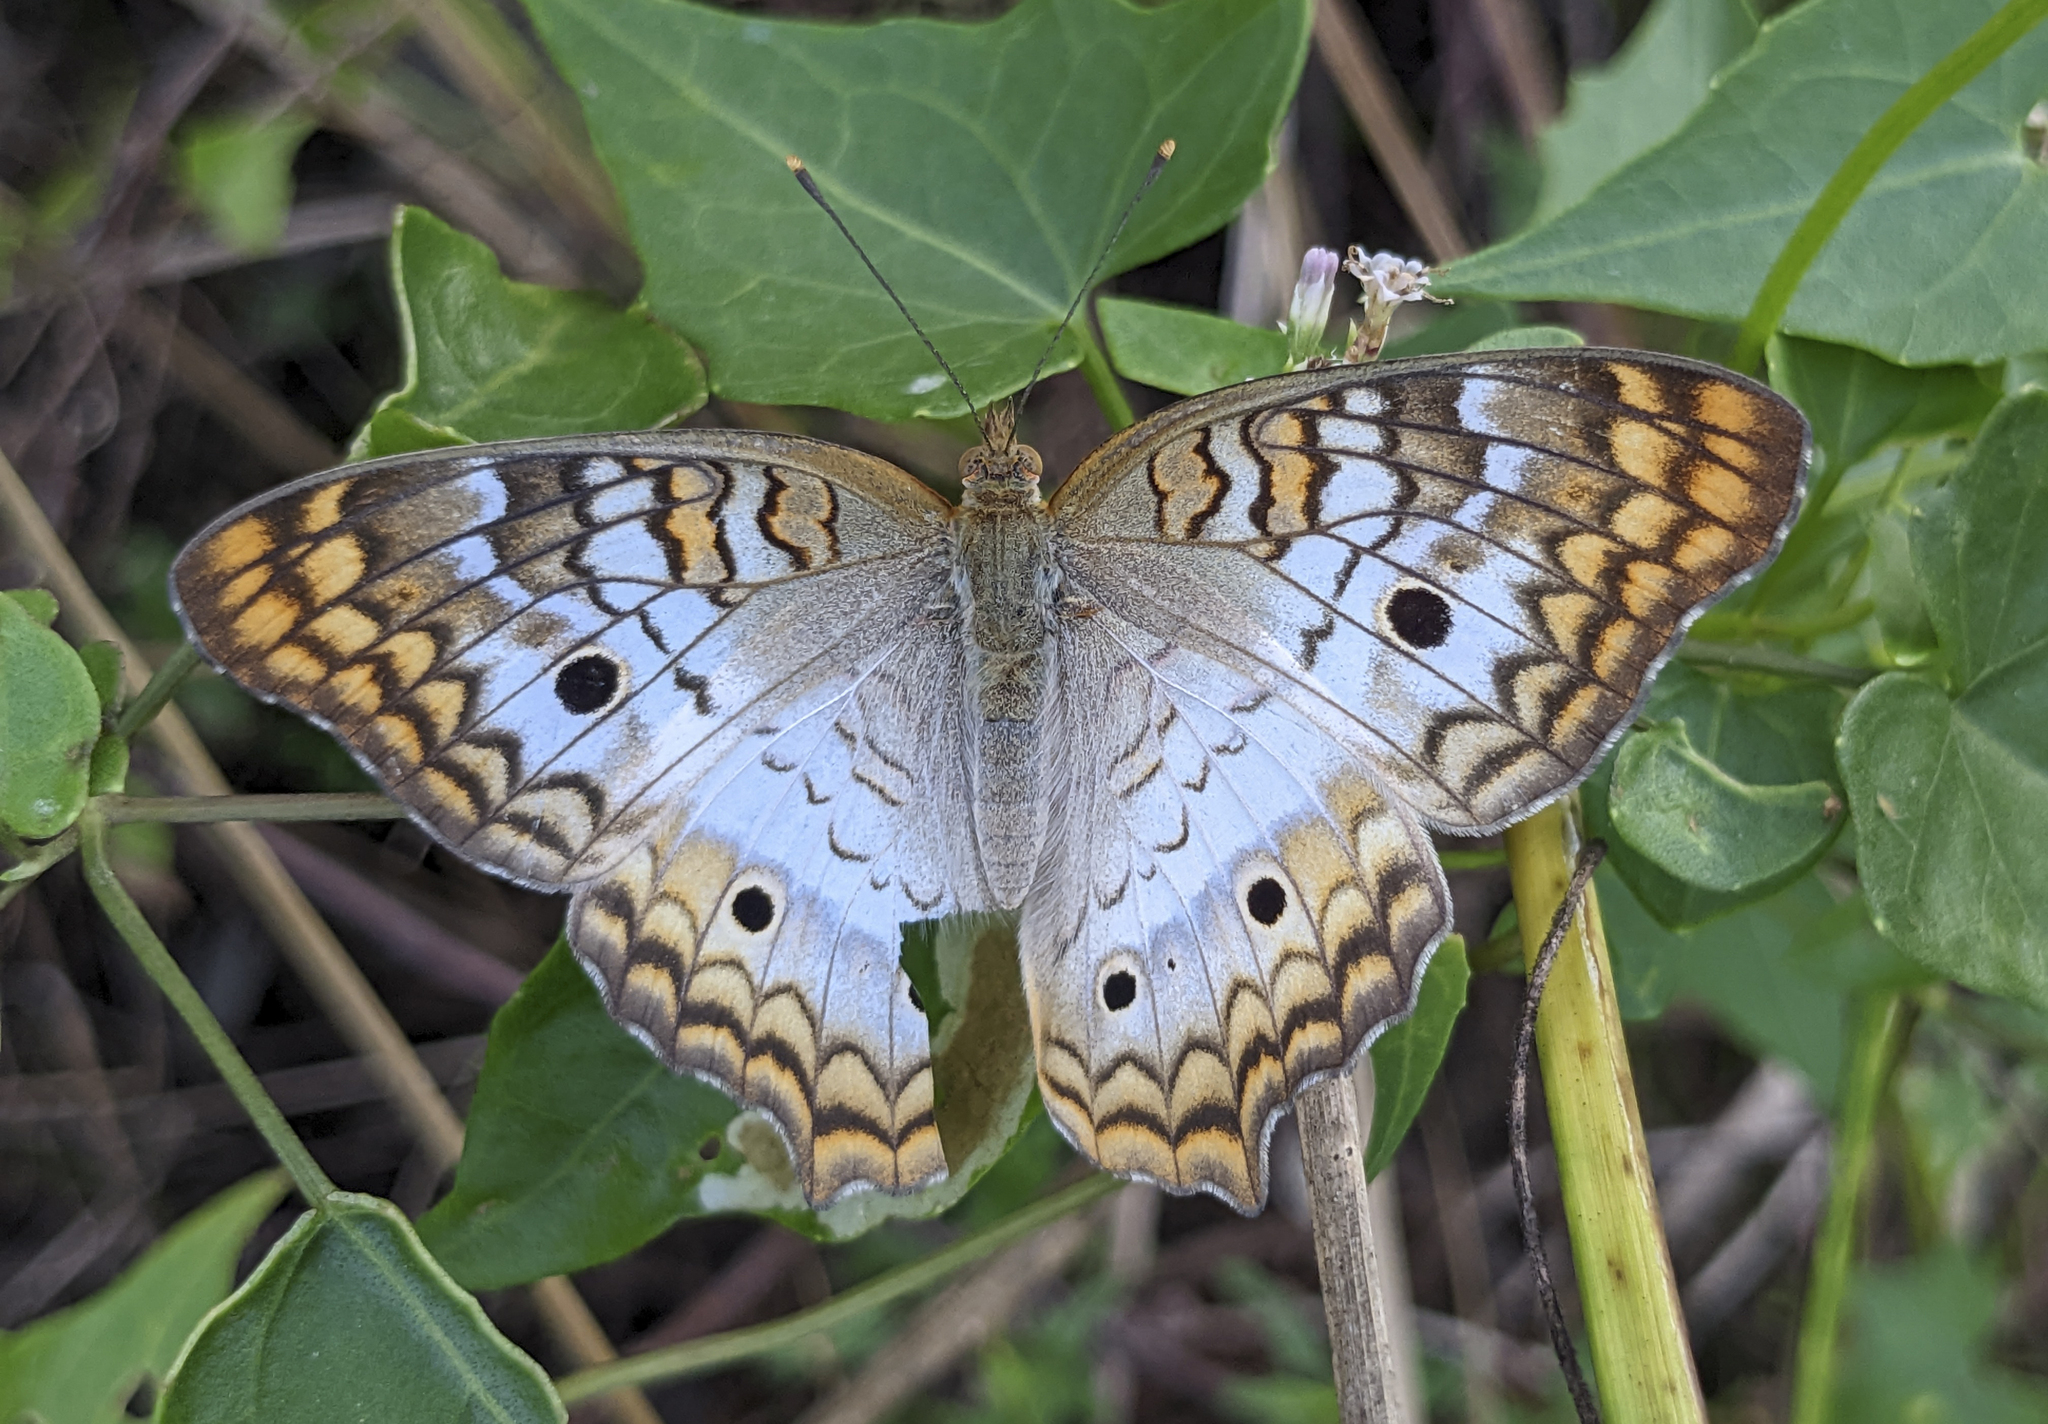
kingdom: Animalia
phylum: Arthropoda
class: Insecta
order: Lepidoptera
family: Nymphalidae
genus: Anartia
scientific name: Anartia jatrophae
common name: White peacock
